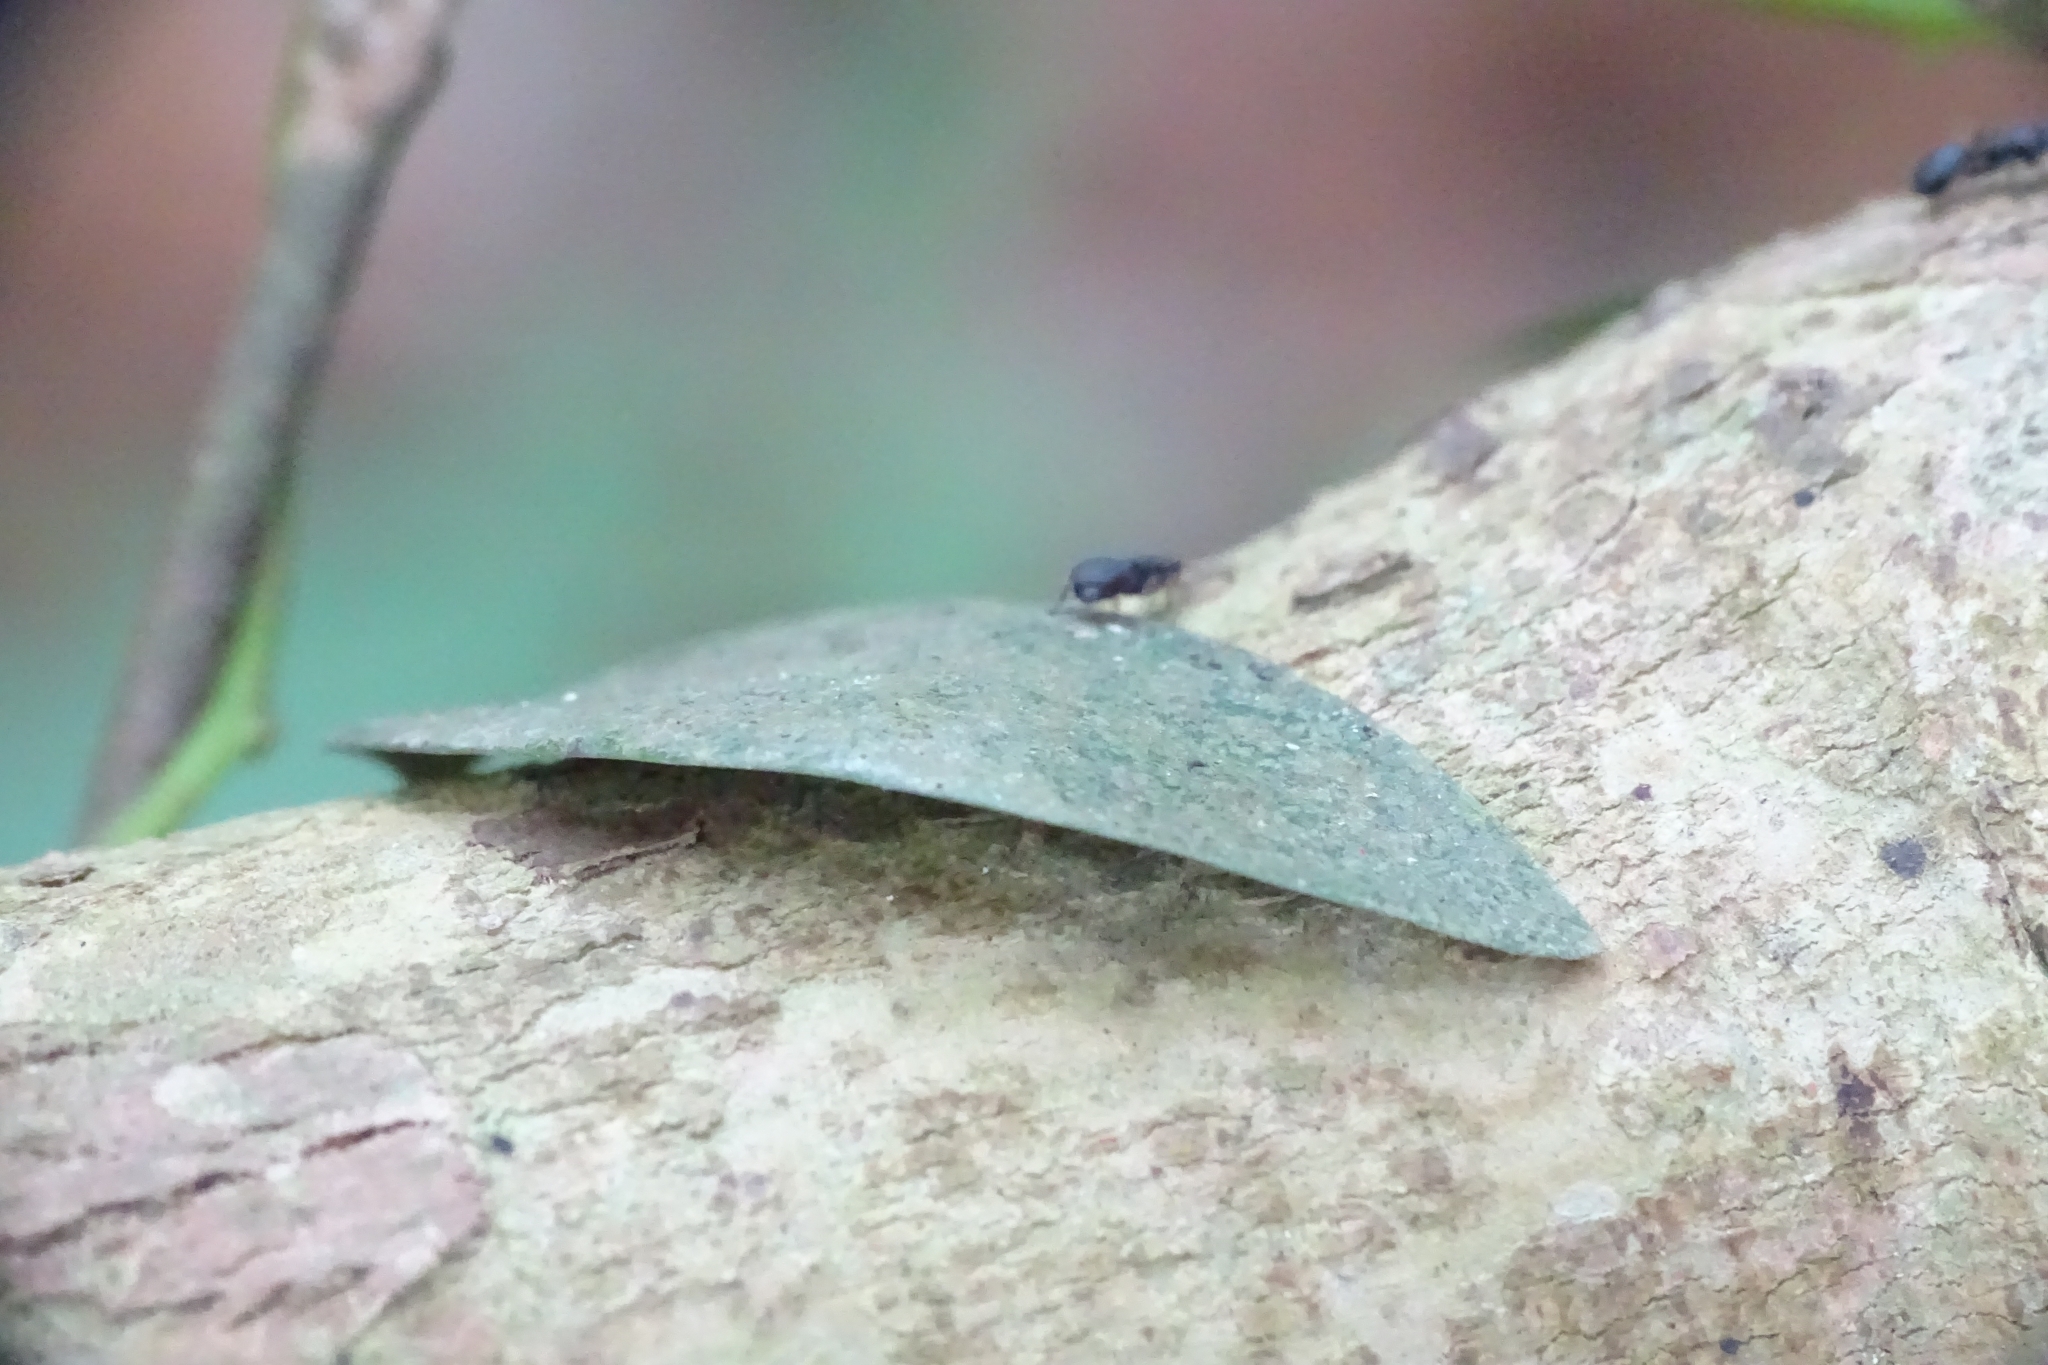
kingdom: Animalia
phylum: Arthropoda
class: Insecta
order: Hymenoptera
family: Formicidae
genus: Cataulacus
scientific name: Cataulacus taprobanae
